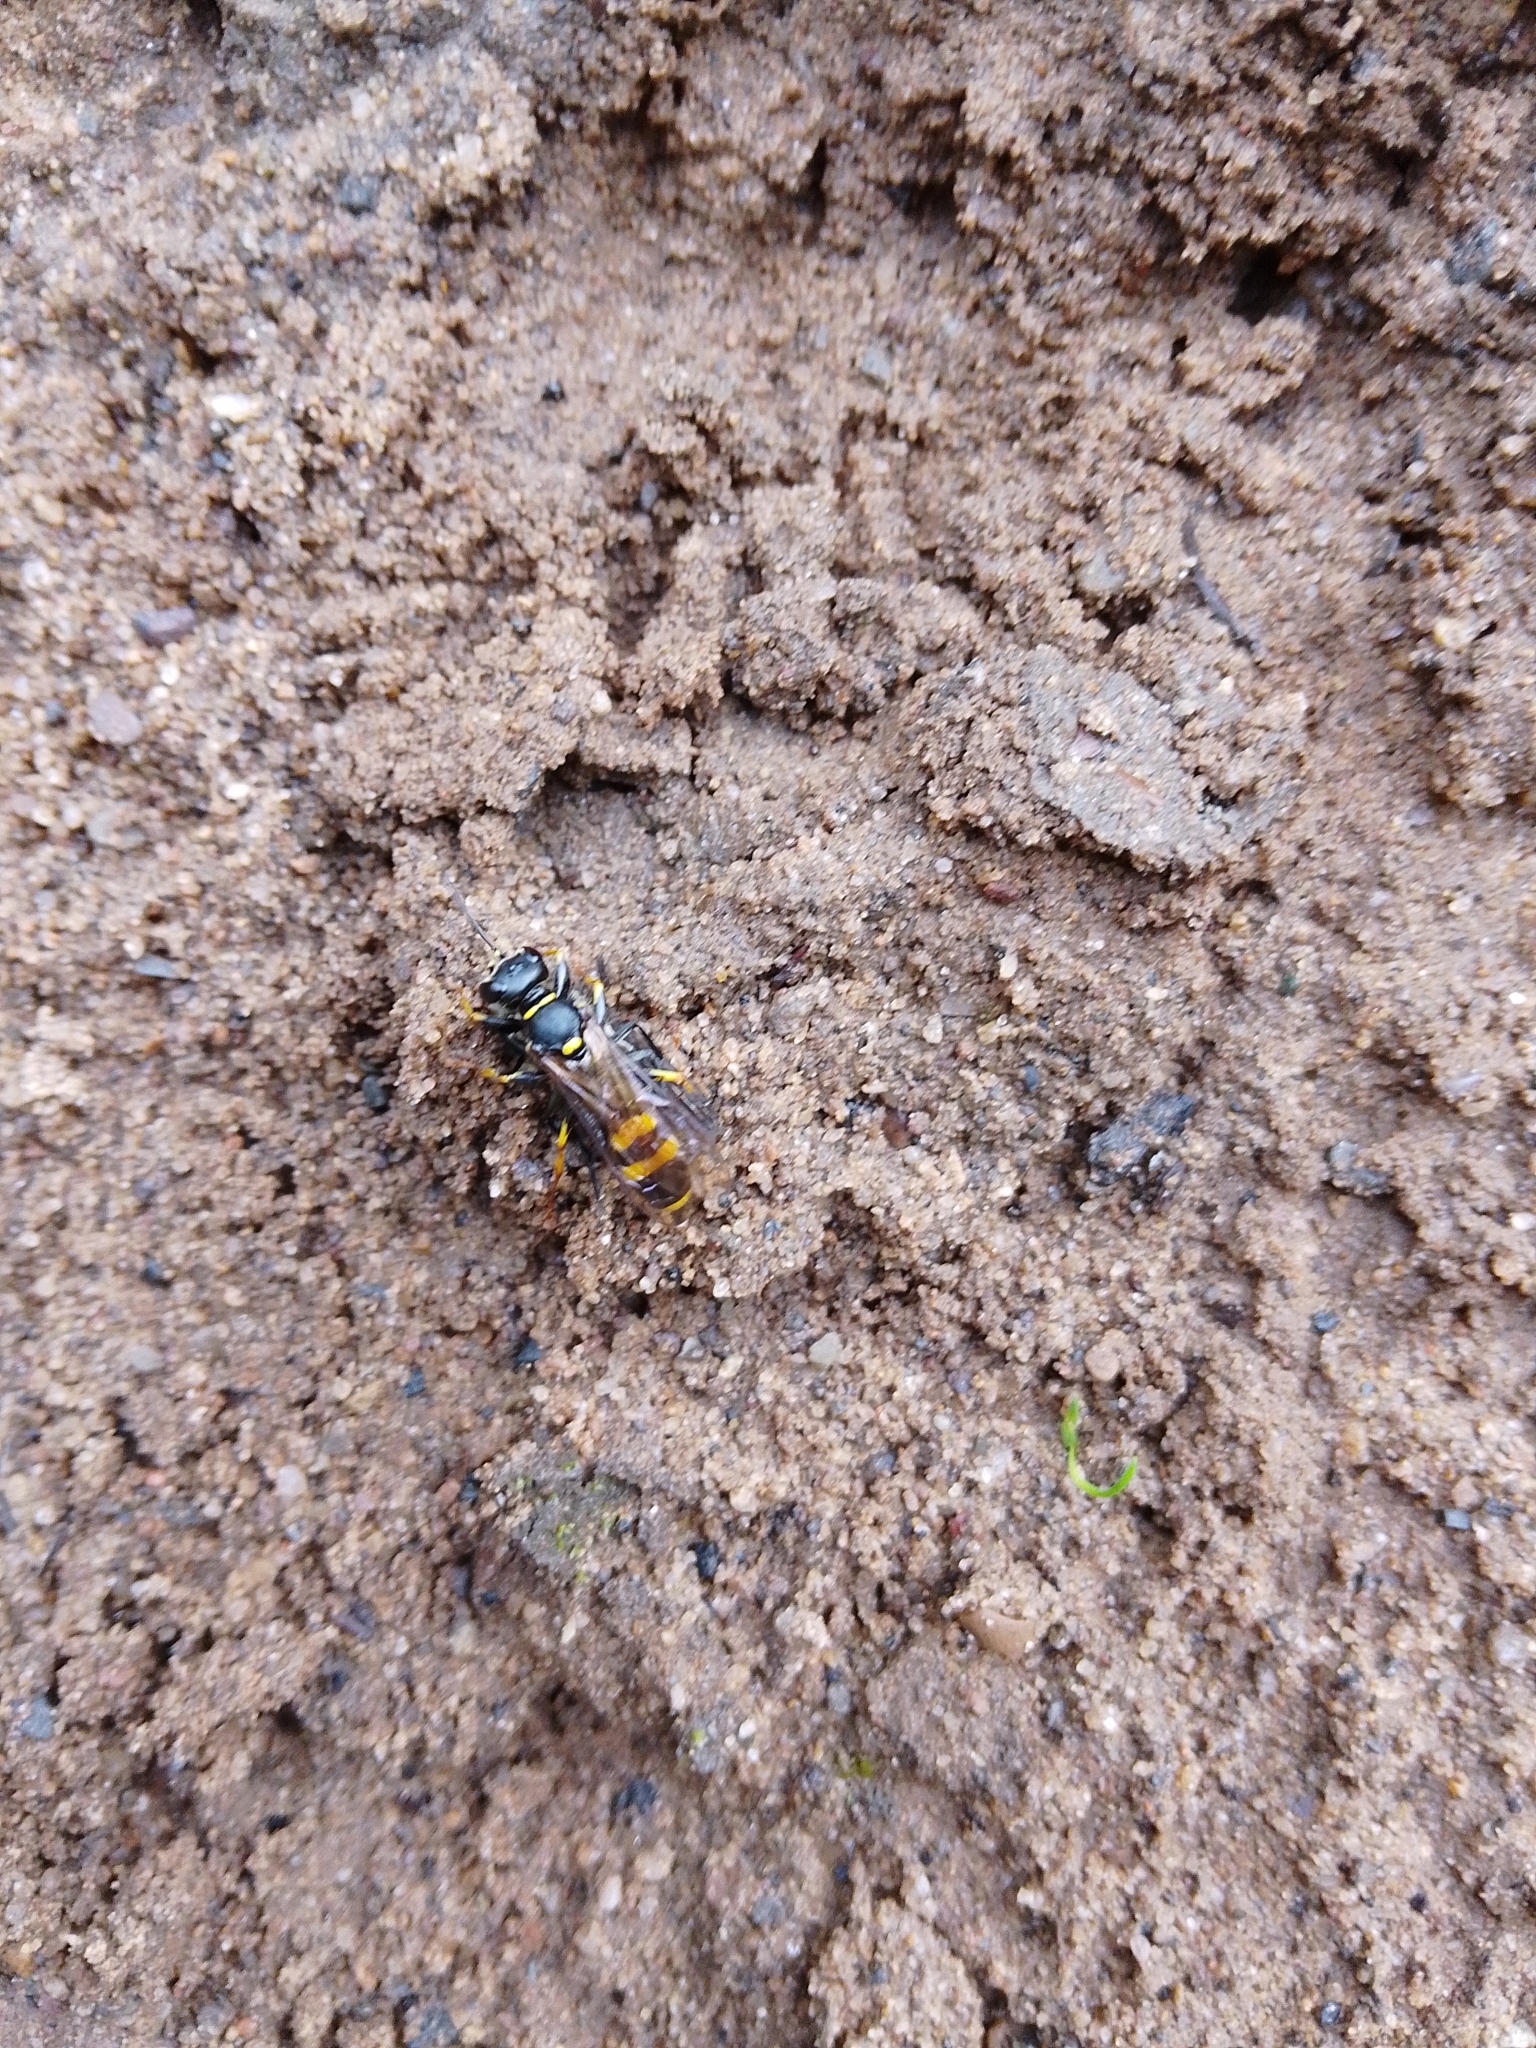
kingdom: Animalia
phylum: Arthropoda
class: Insecta
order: Hymenoptera
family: Crabronidae
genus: Mellinus
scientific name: Mellinus arvensis
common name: Field digger wasp
